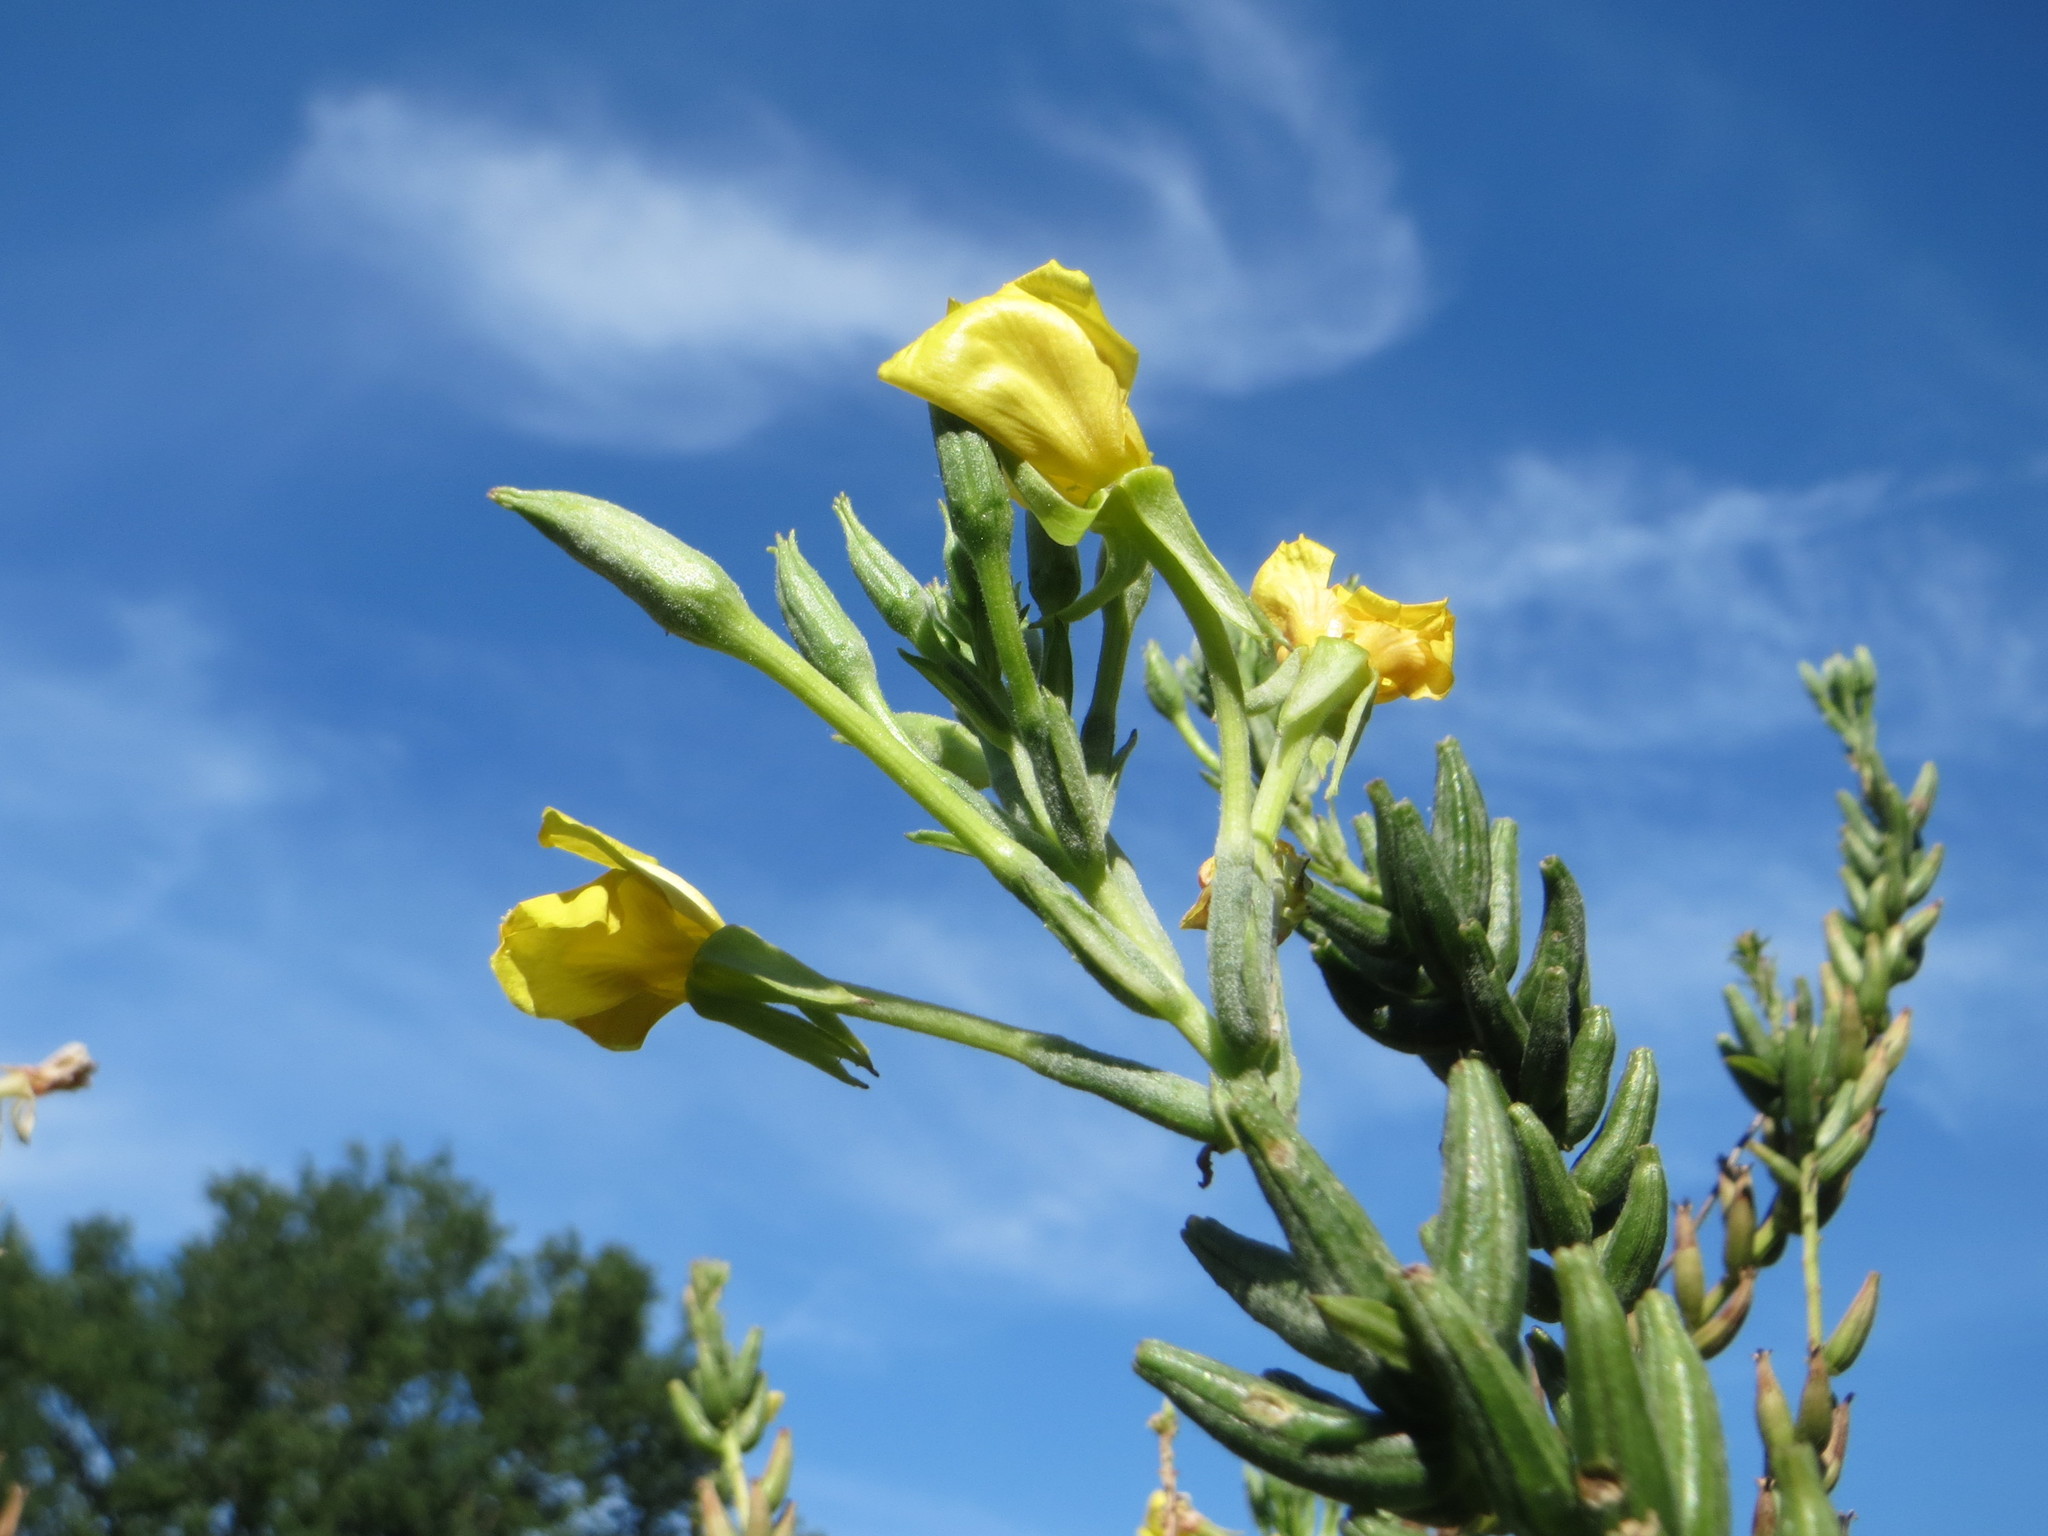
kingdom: Plantae
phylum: Tracheophyta
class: Magnoliopsida
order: Myrtales
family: Onagraceae
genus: Oenothera
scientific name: Oenothera biennis
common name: Common evening-primrose
